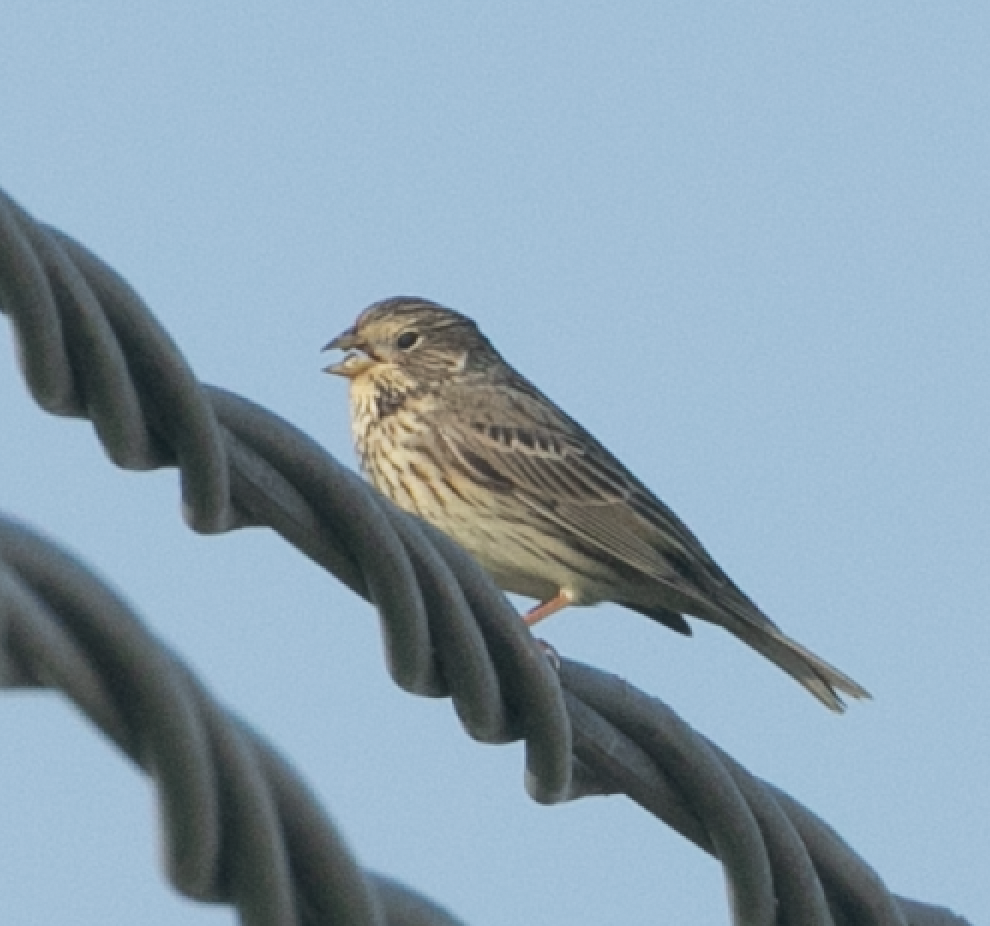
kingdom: Animalia
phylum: Chordata
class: Aves
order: Passeriformes
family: Emberizidae
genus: Emberiza
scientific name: Emberiza calandra
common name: Corn bunting
